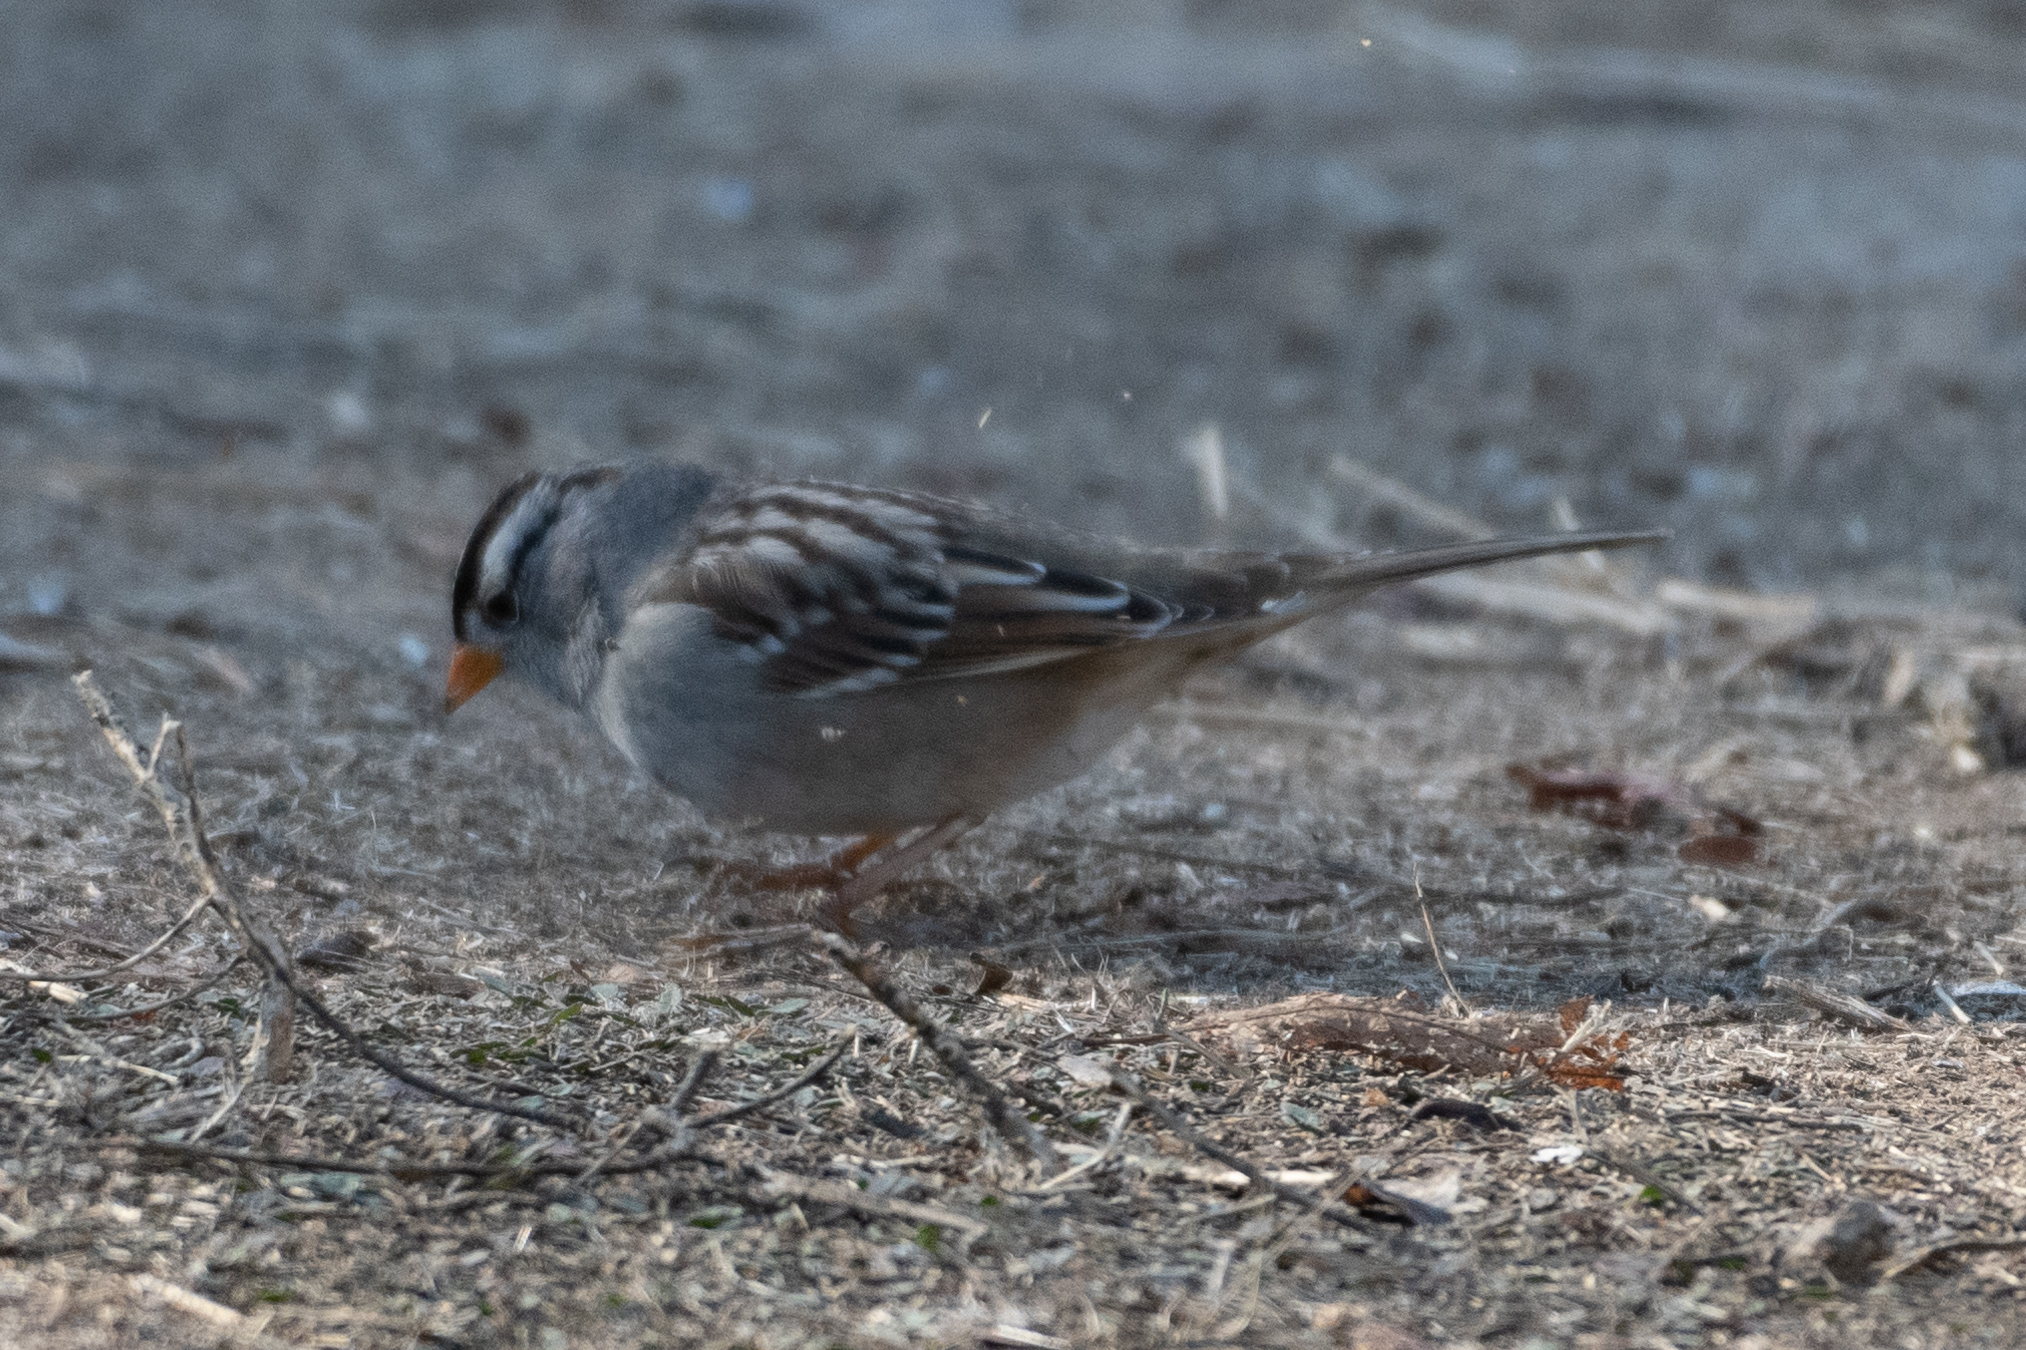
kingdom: Animalia
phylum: Chordata
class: Aves
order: Passeriformes
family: Passerellidae
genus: Zonotrichia
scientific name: Zonotrichia leucophrys
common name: White-crowned sparrow
